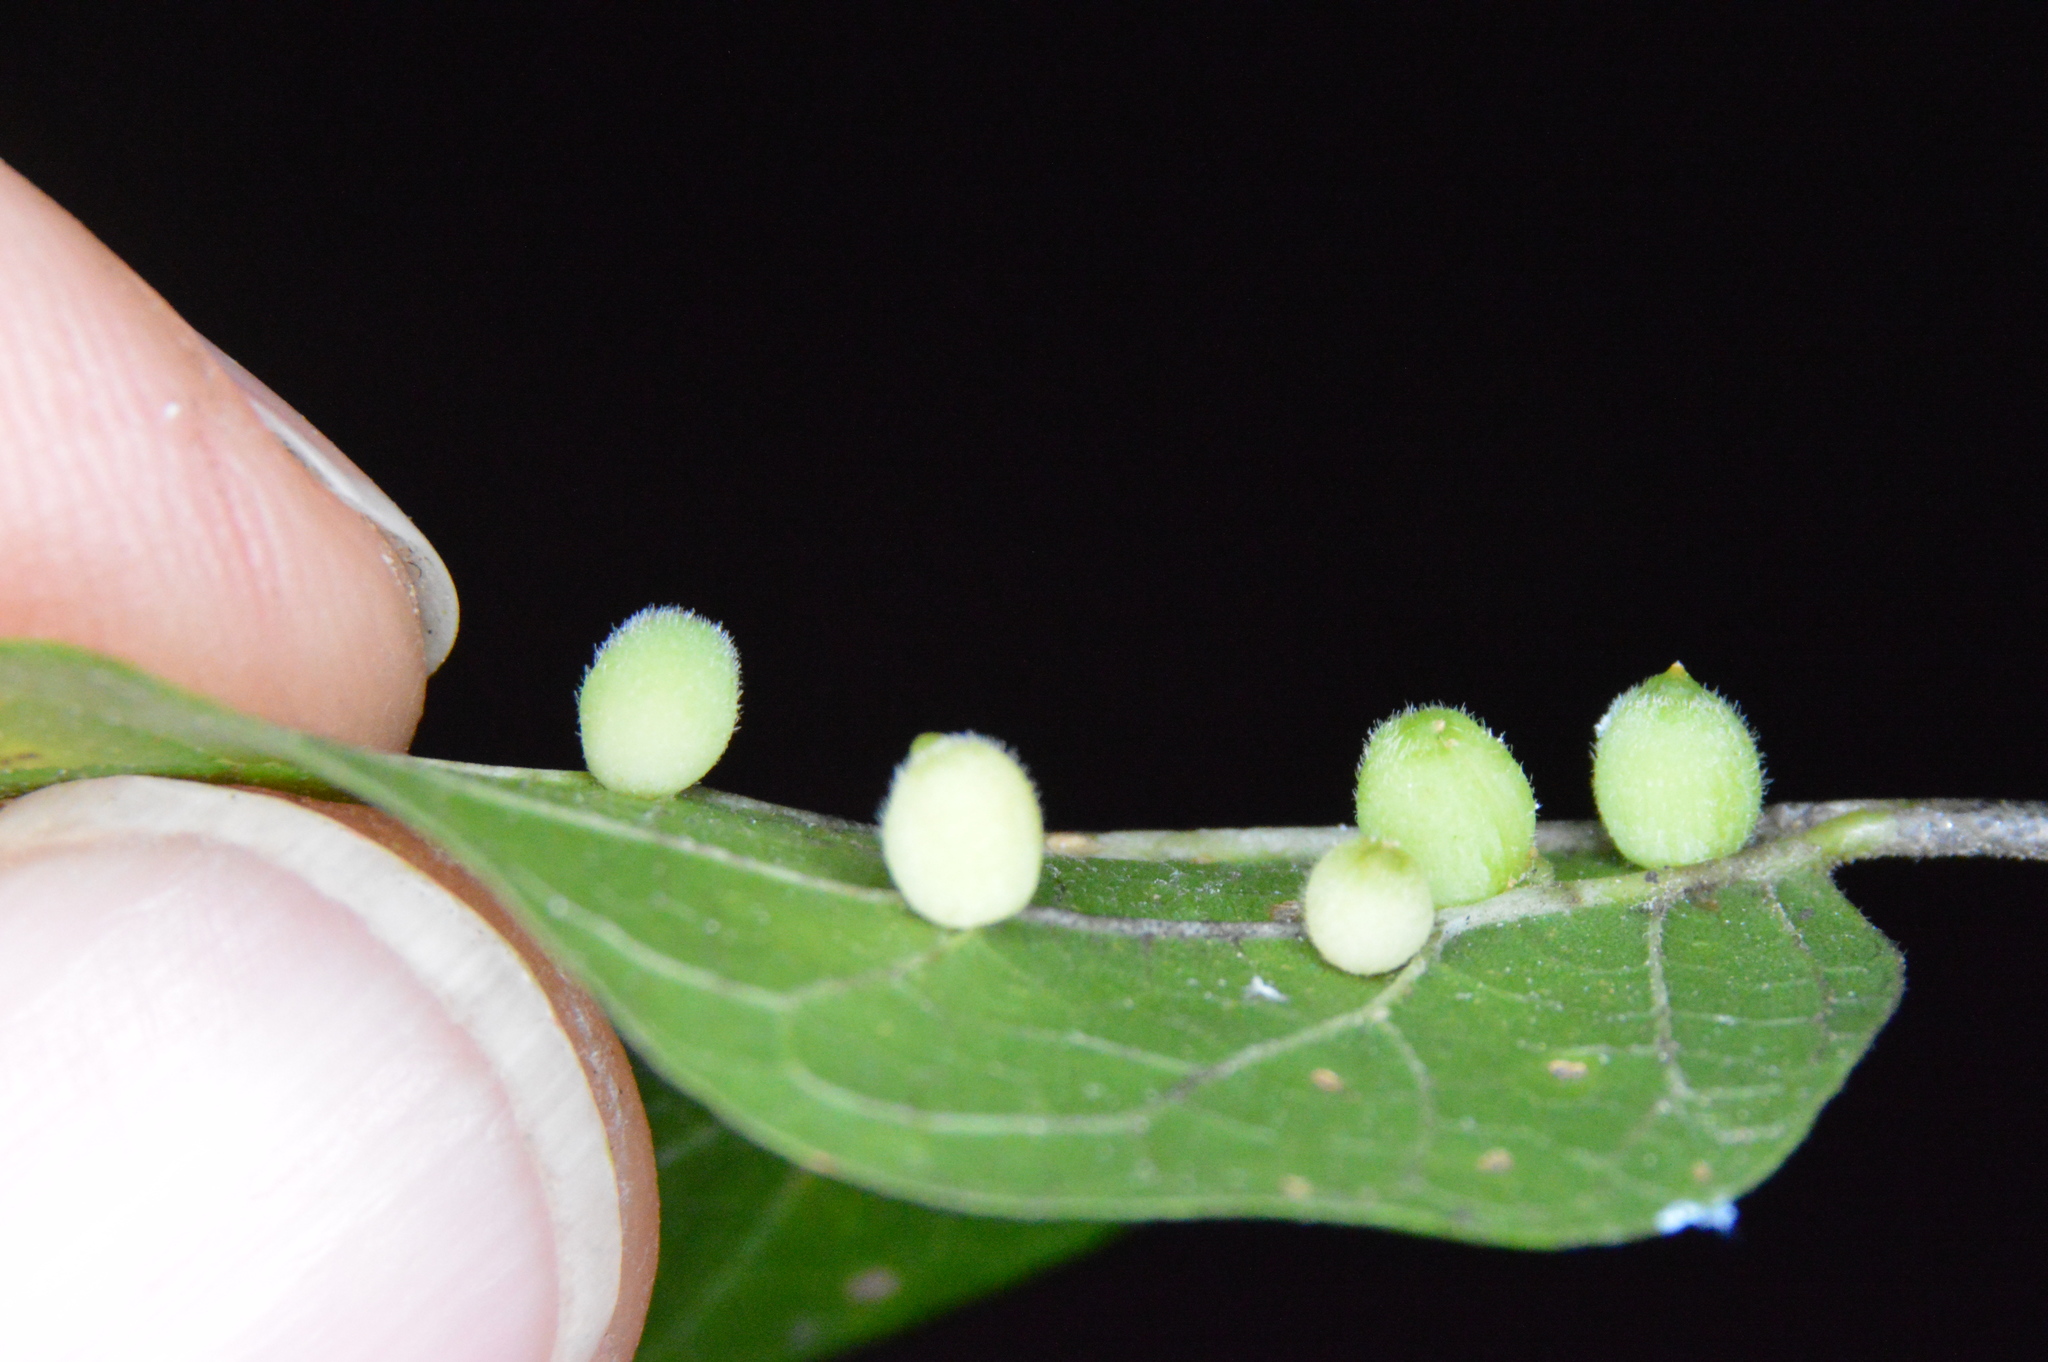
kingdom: Animalia
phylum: Arthropoda
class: Insecta
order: Diptera
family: Cecidomyiidae
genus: Celticecis
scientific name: Celticecis globosa
